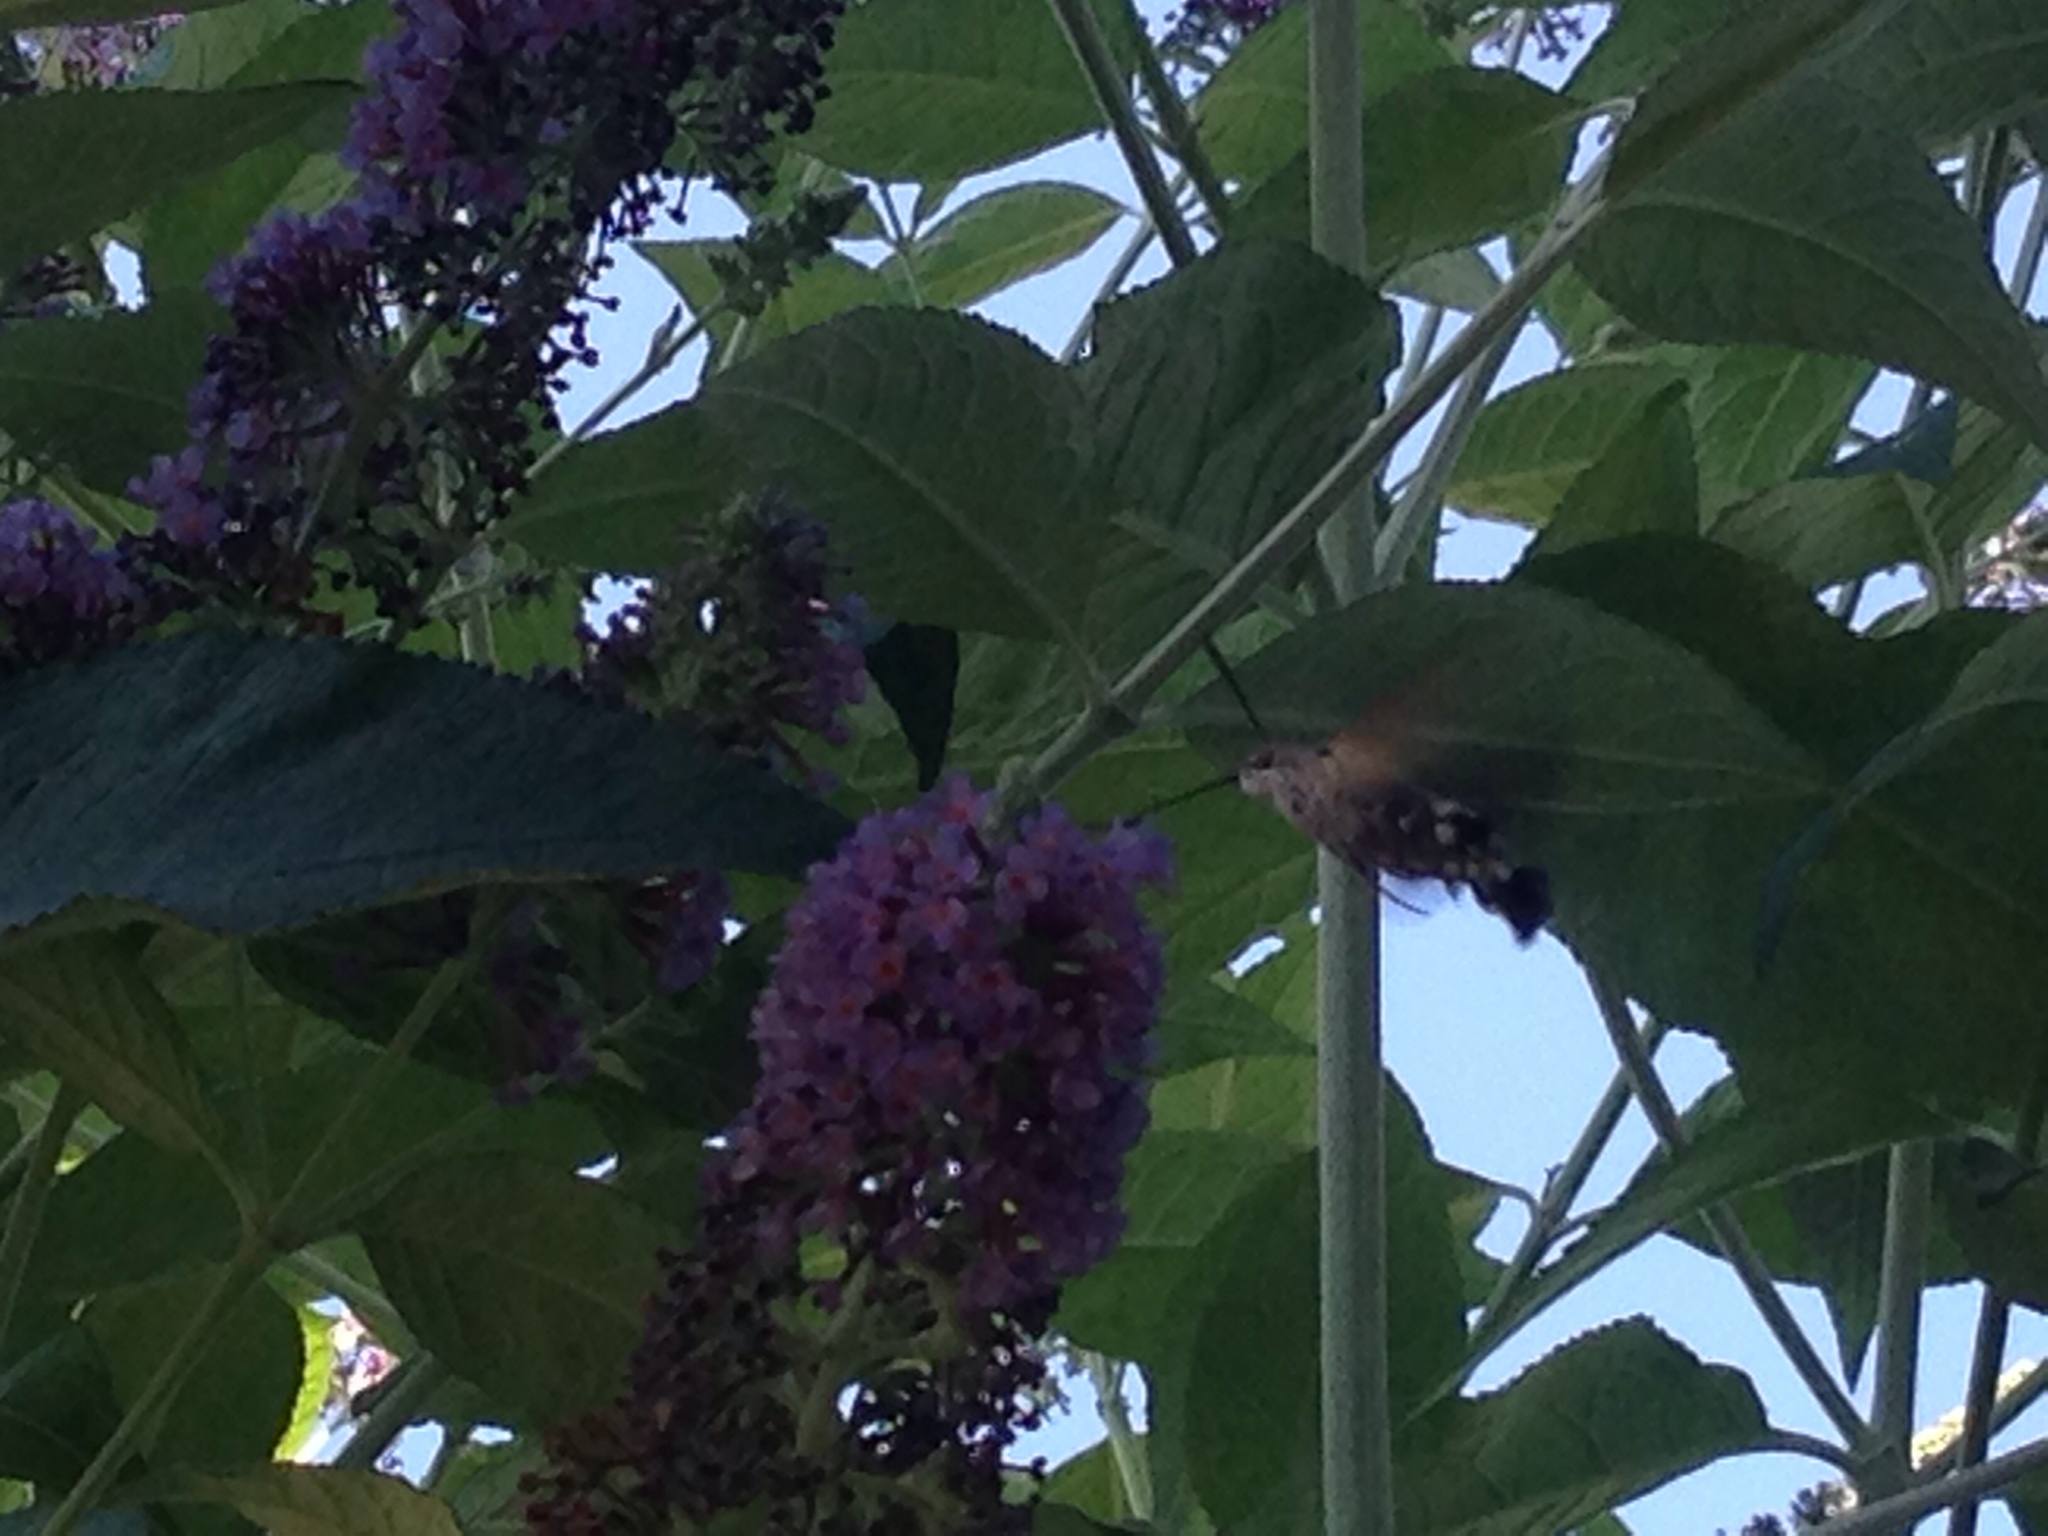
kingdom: Animalia
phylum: Arthropoda
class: Insecta
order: Lepidoptera
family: Sphingidae
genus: Macroglossum
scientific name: Macroglossum stellatarum
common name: Humming-bird hawk-moth
